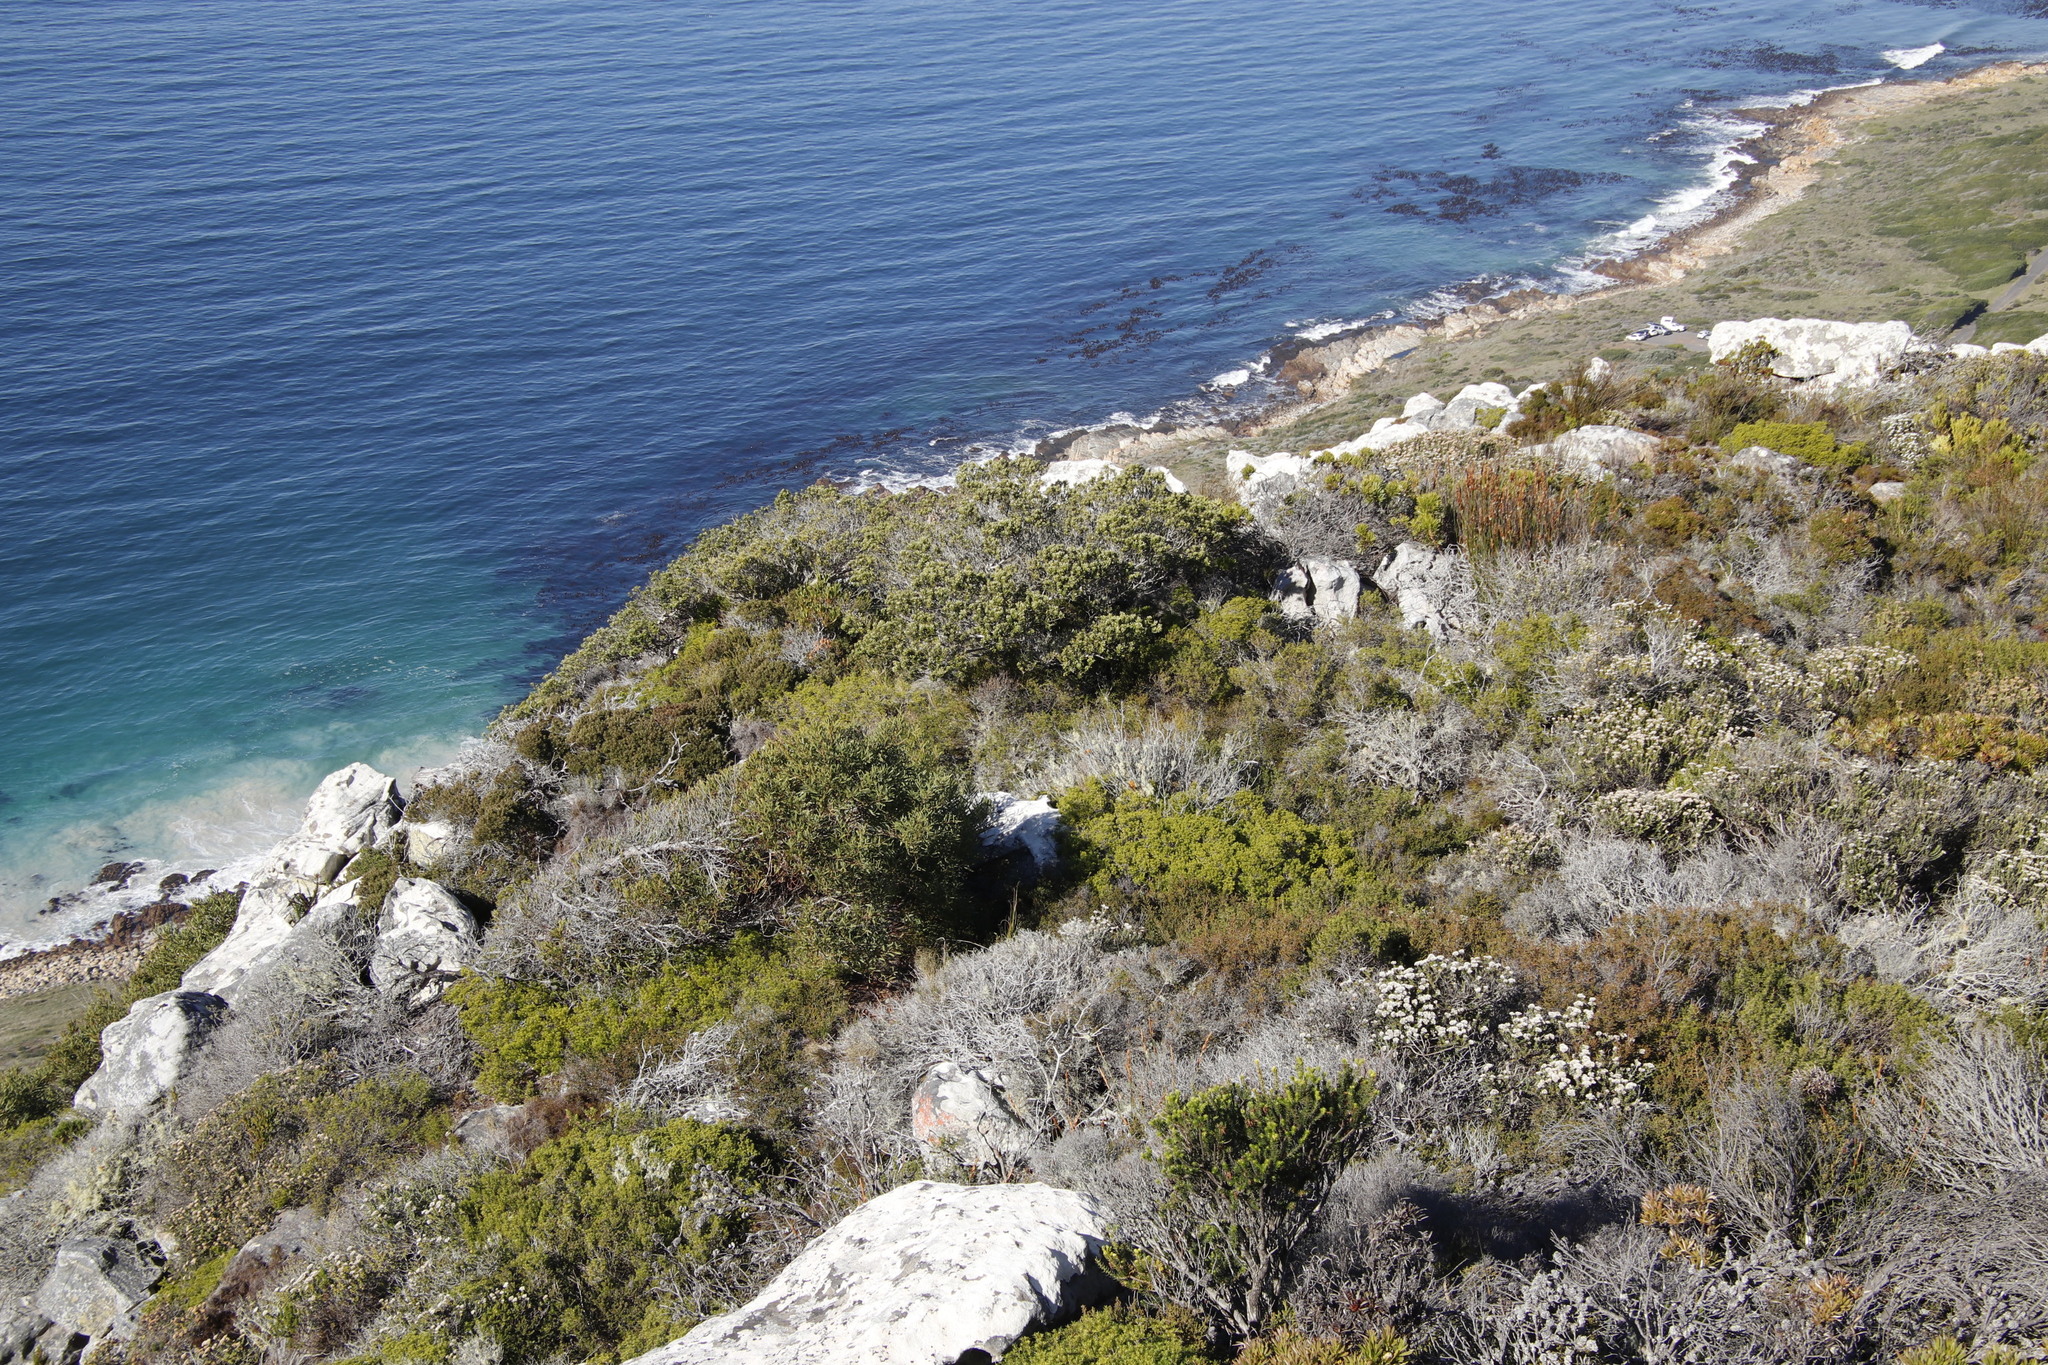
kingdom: Plantae
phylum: Tracheophyta
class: Magnoliopsida
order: Rosales
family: Rhamnaceae
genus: Phylica
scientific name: Phylica buxifolia
